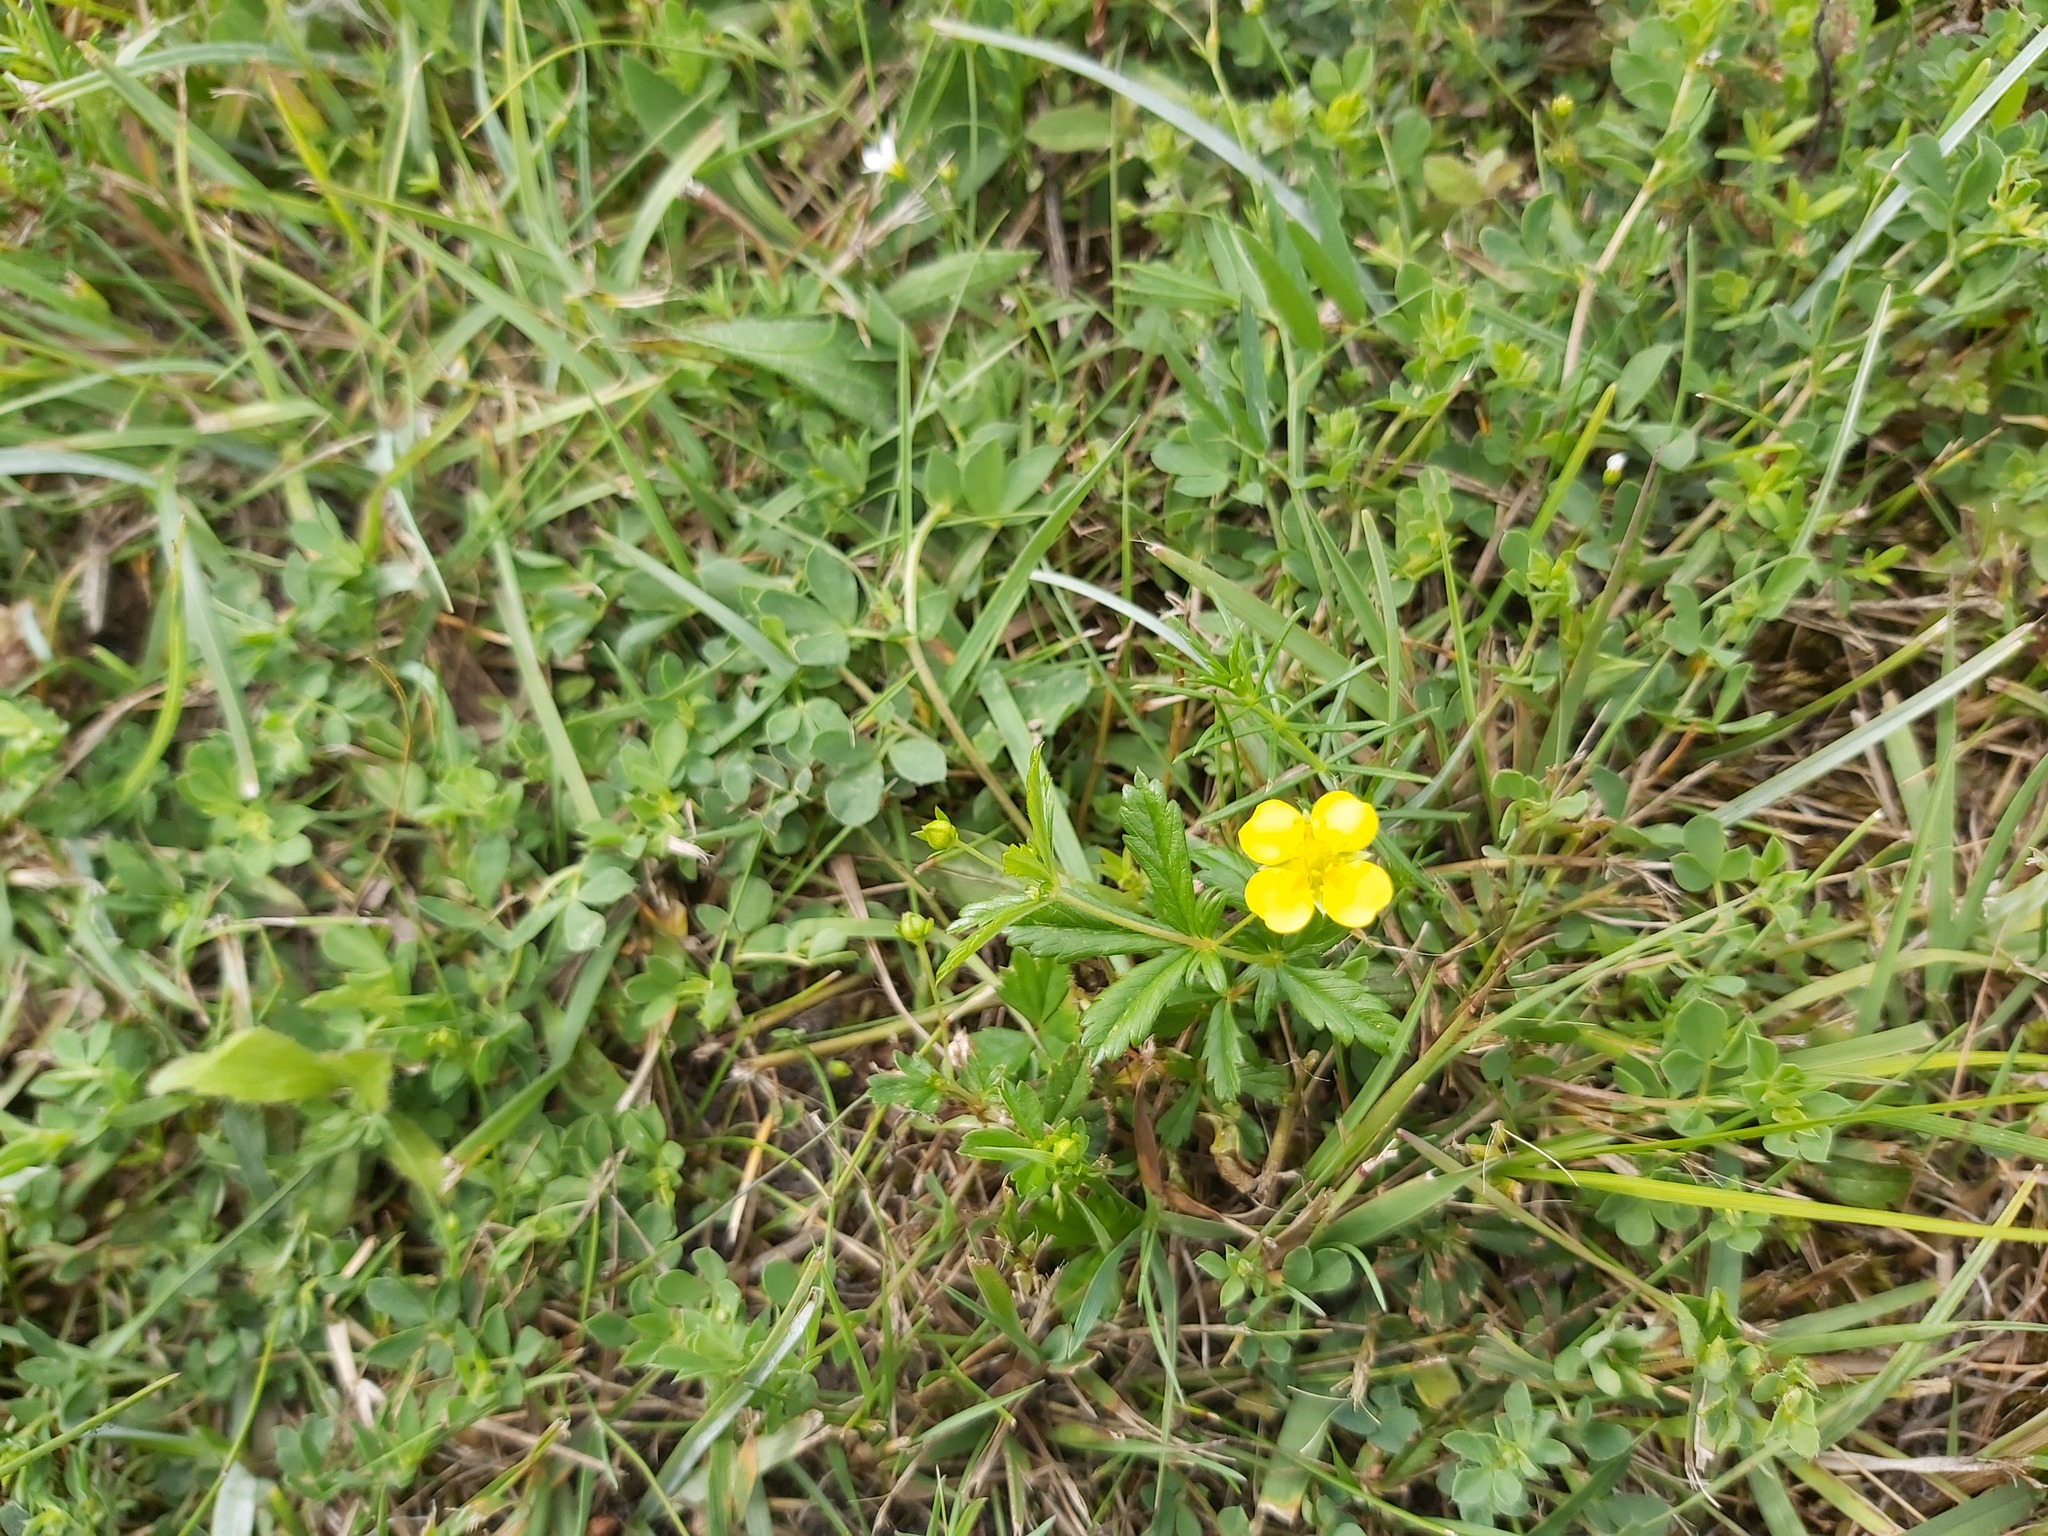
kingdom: Plantae
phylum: Tracheophyta
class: Magnoliopsida
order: Rosales
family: Rosaceae
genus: Potentilla
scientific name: Potentilla erecta
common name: Tormentil
